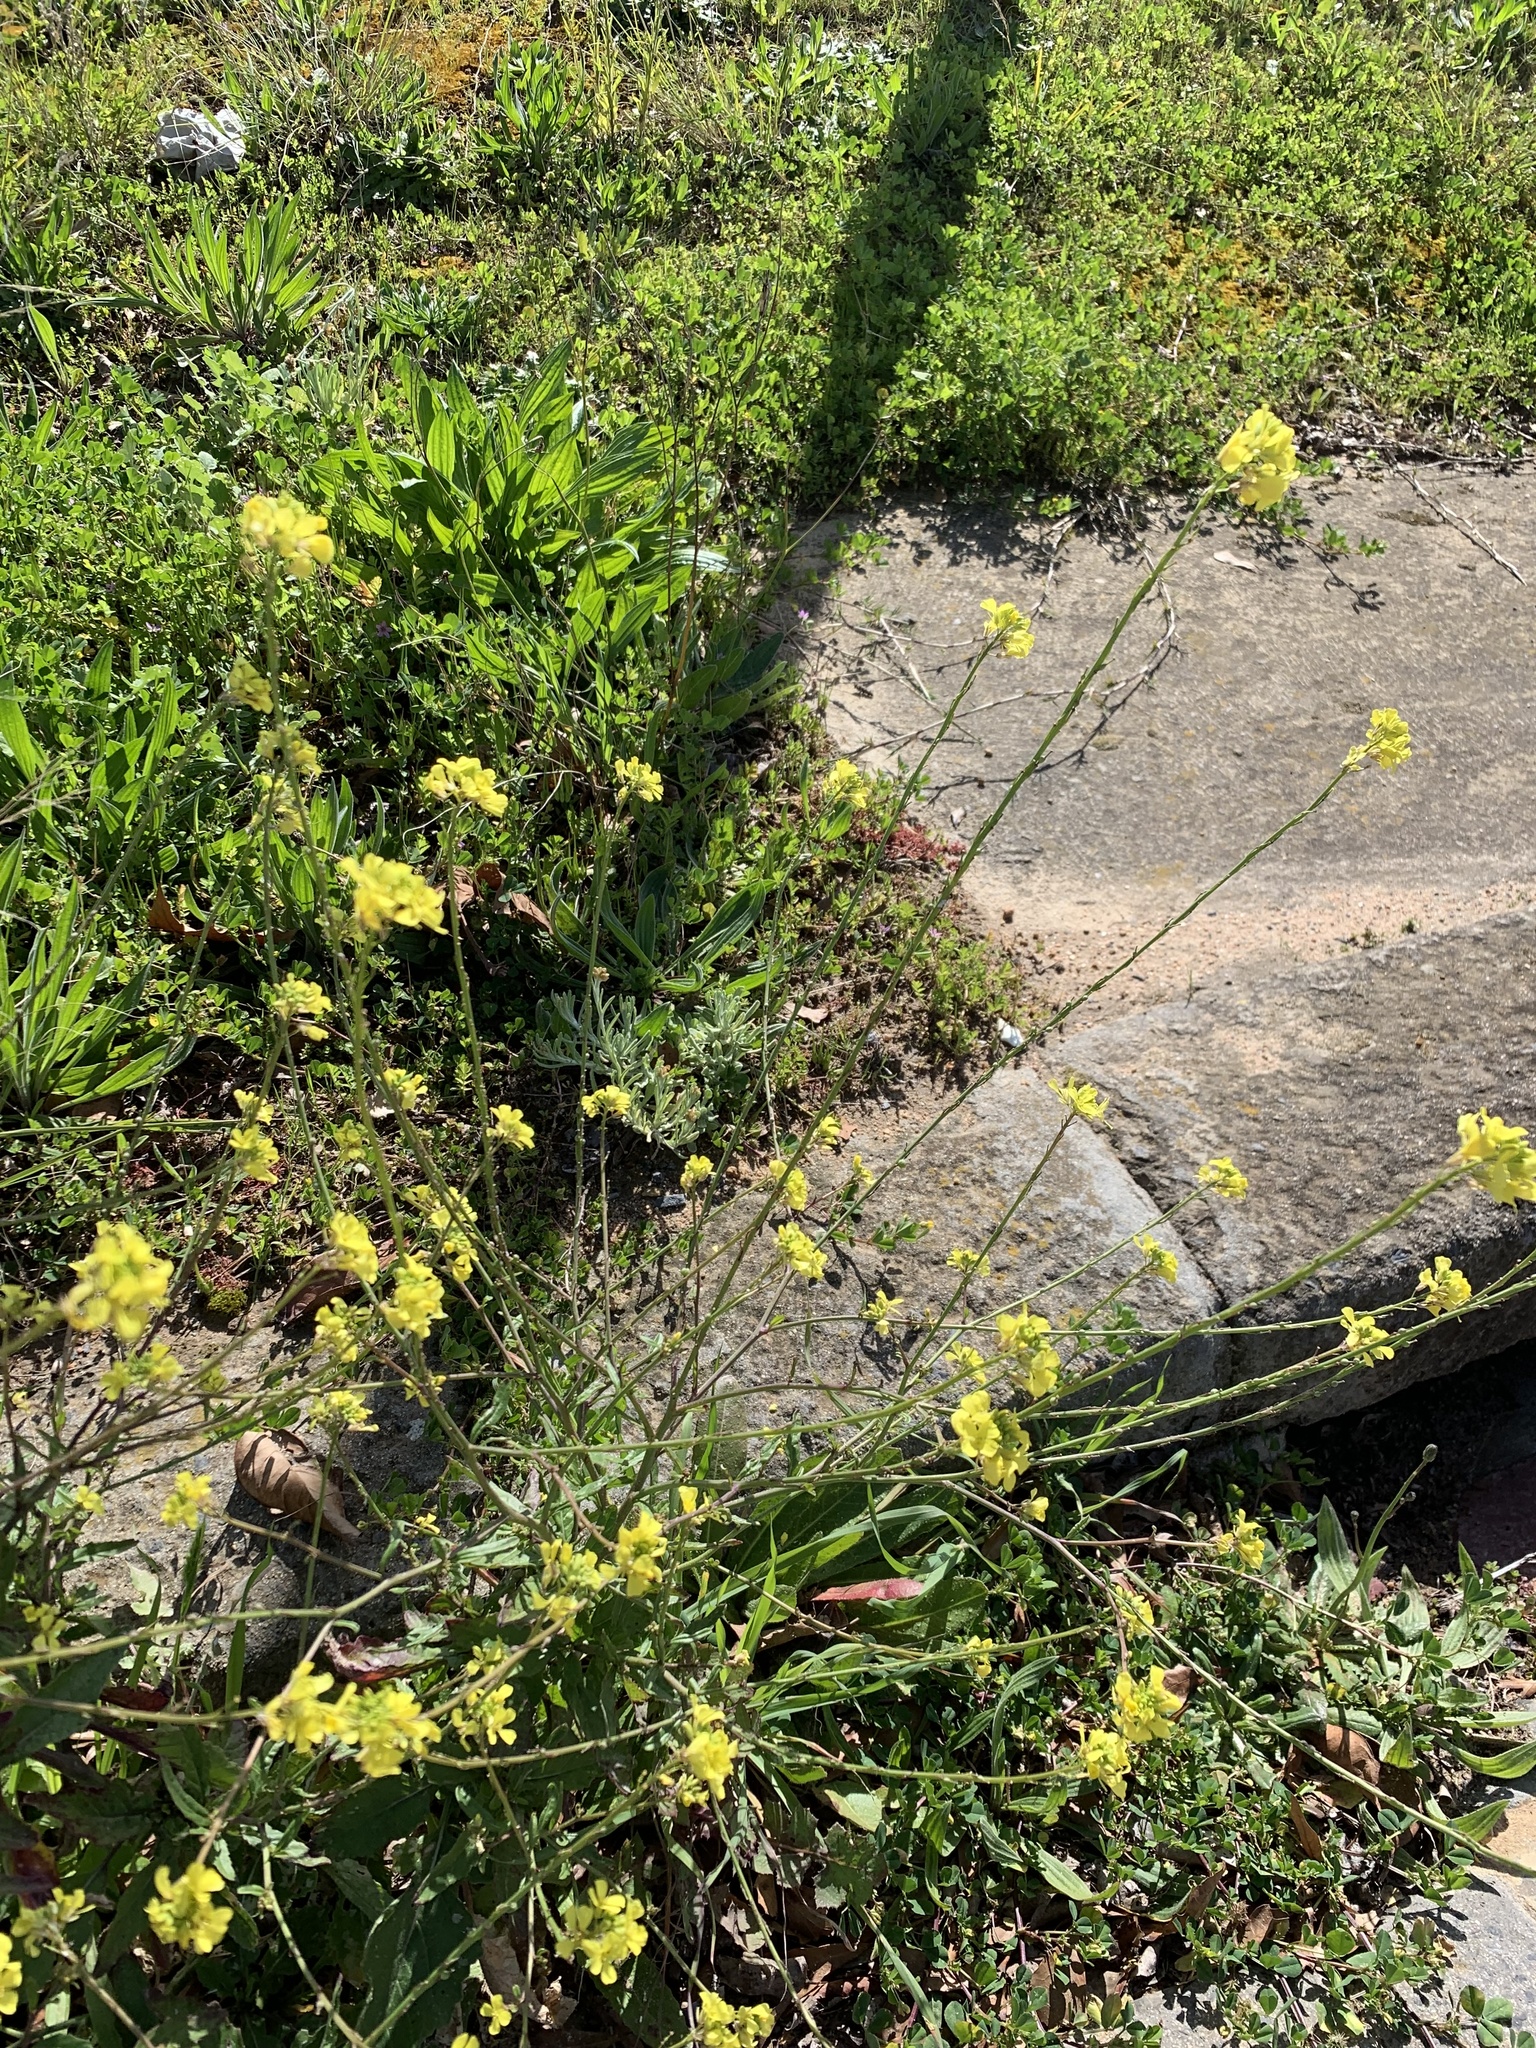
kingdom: Plantae
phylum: Tracheophyta
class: Magnoliopsida
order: Brassicales
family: Brassicaceae
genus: Rapistrum
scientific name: Rapistrum rugosum
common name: Annual bastardcabbage
